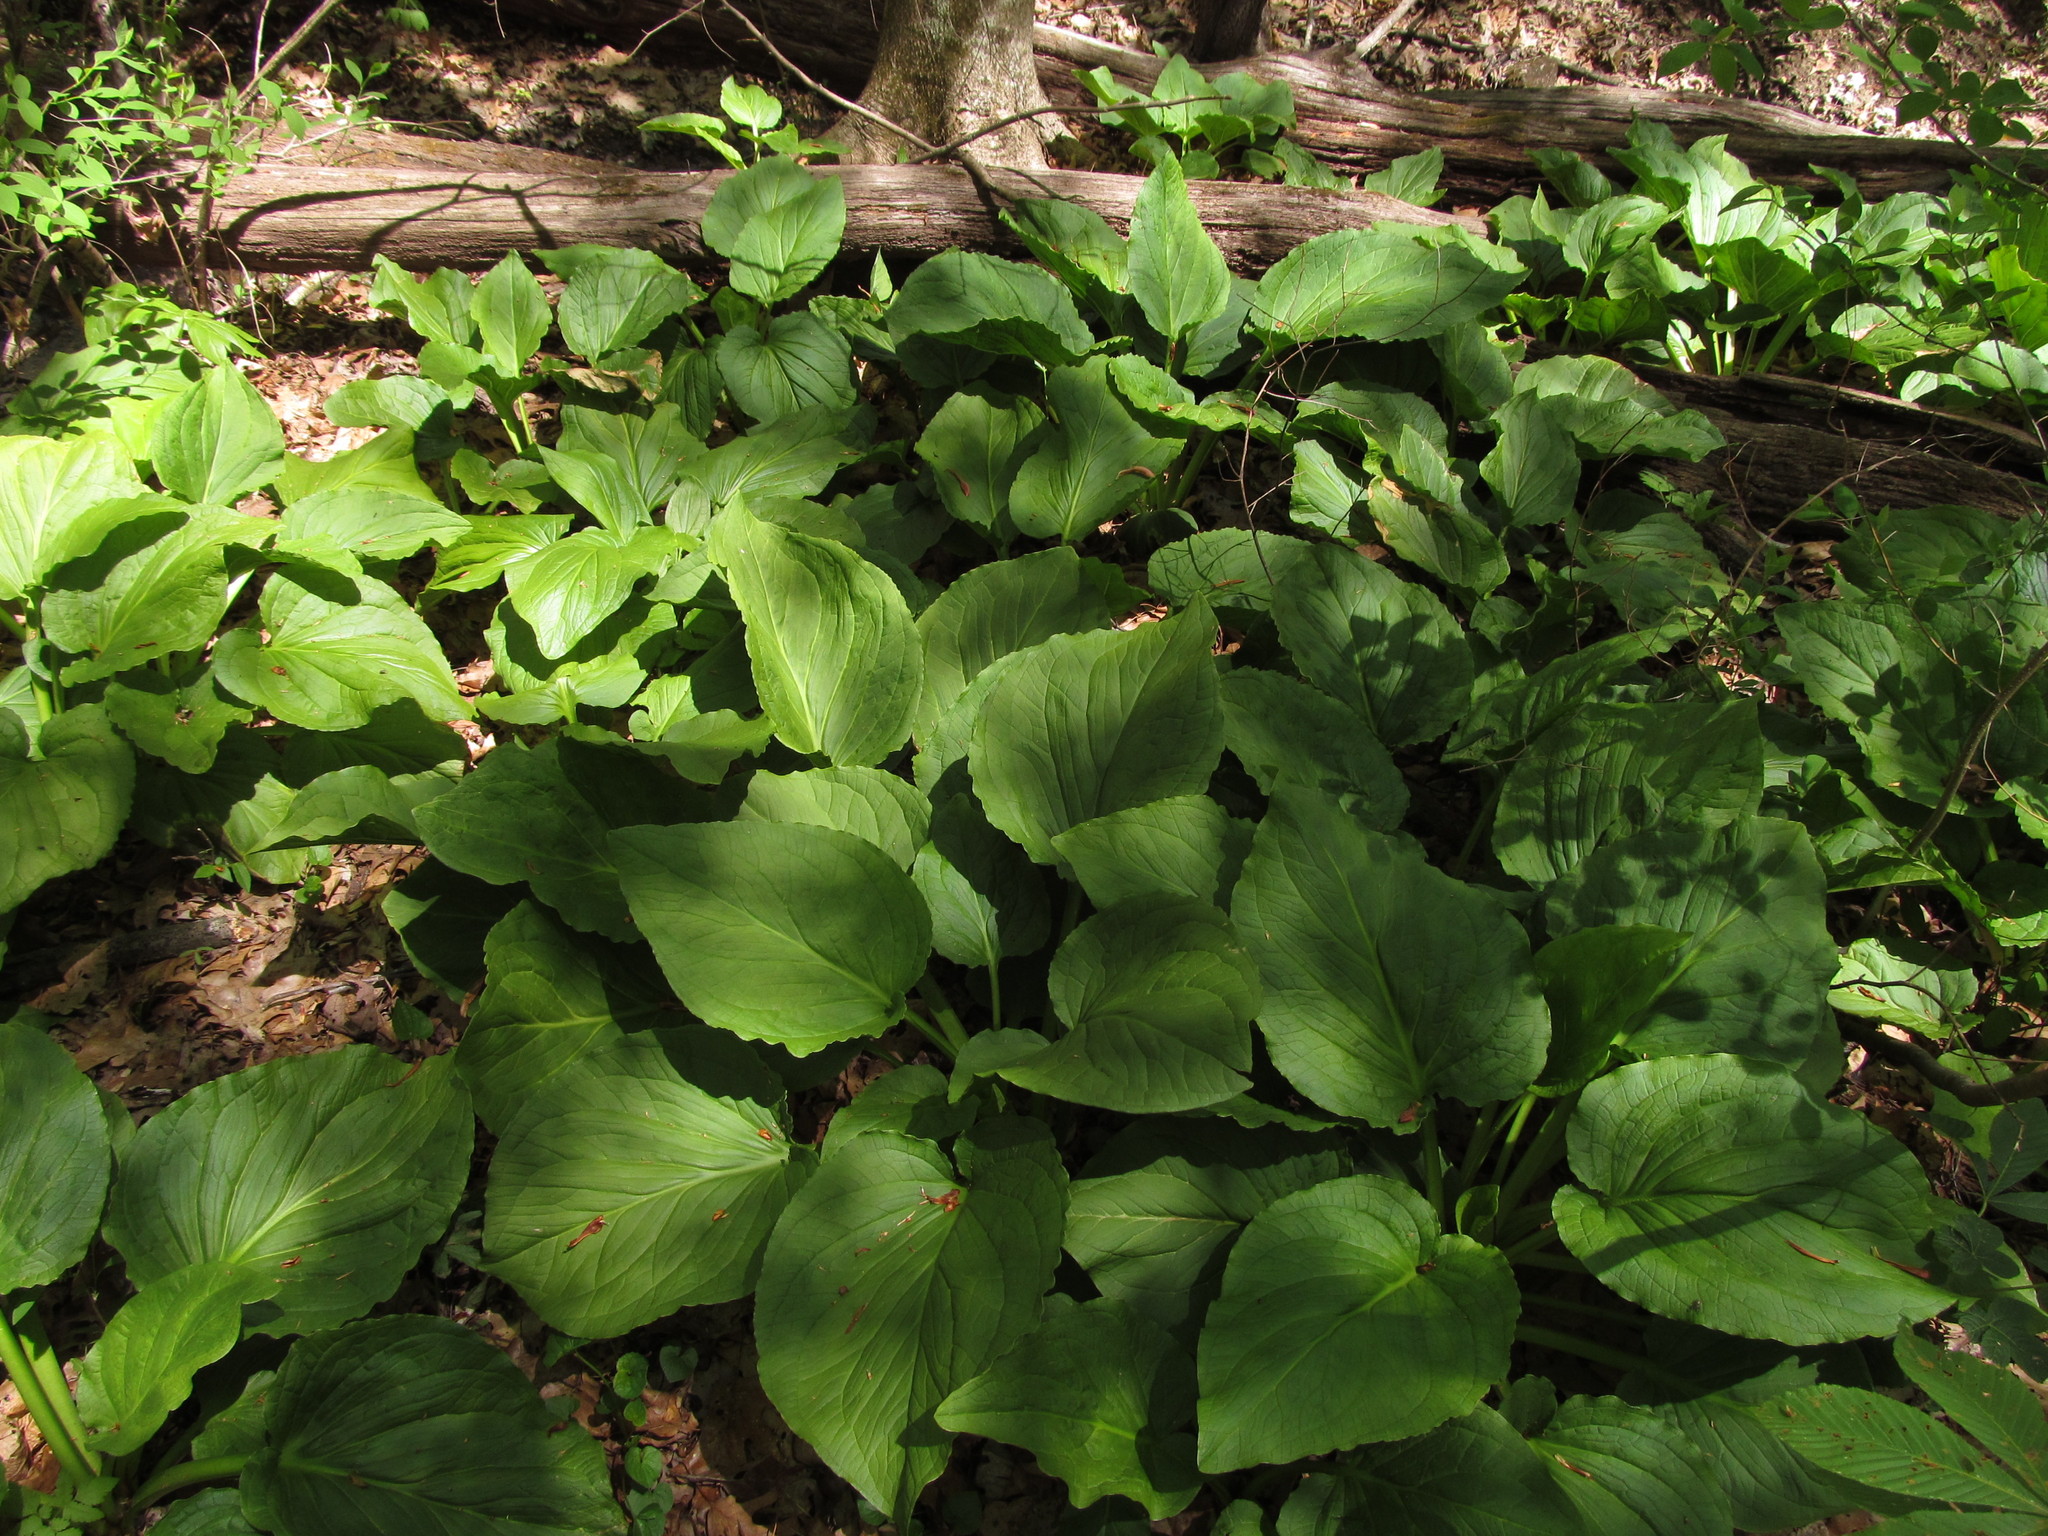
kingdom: Plantae
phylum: Tracheophyta
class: Liliopsida
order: Alismatales
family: Araceae
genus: Symplocarpus
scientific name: Symplocarpus foetidus
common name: Eastern skunk cabbage
